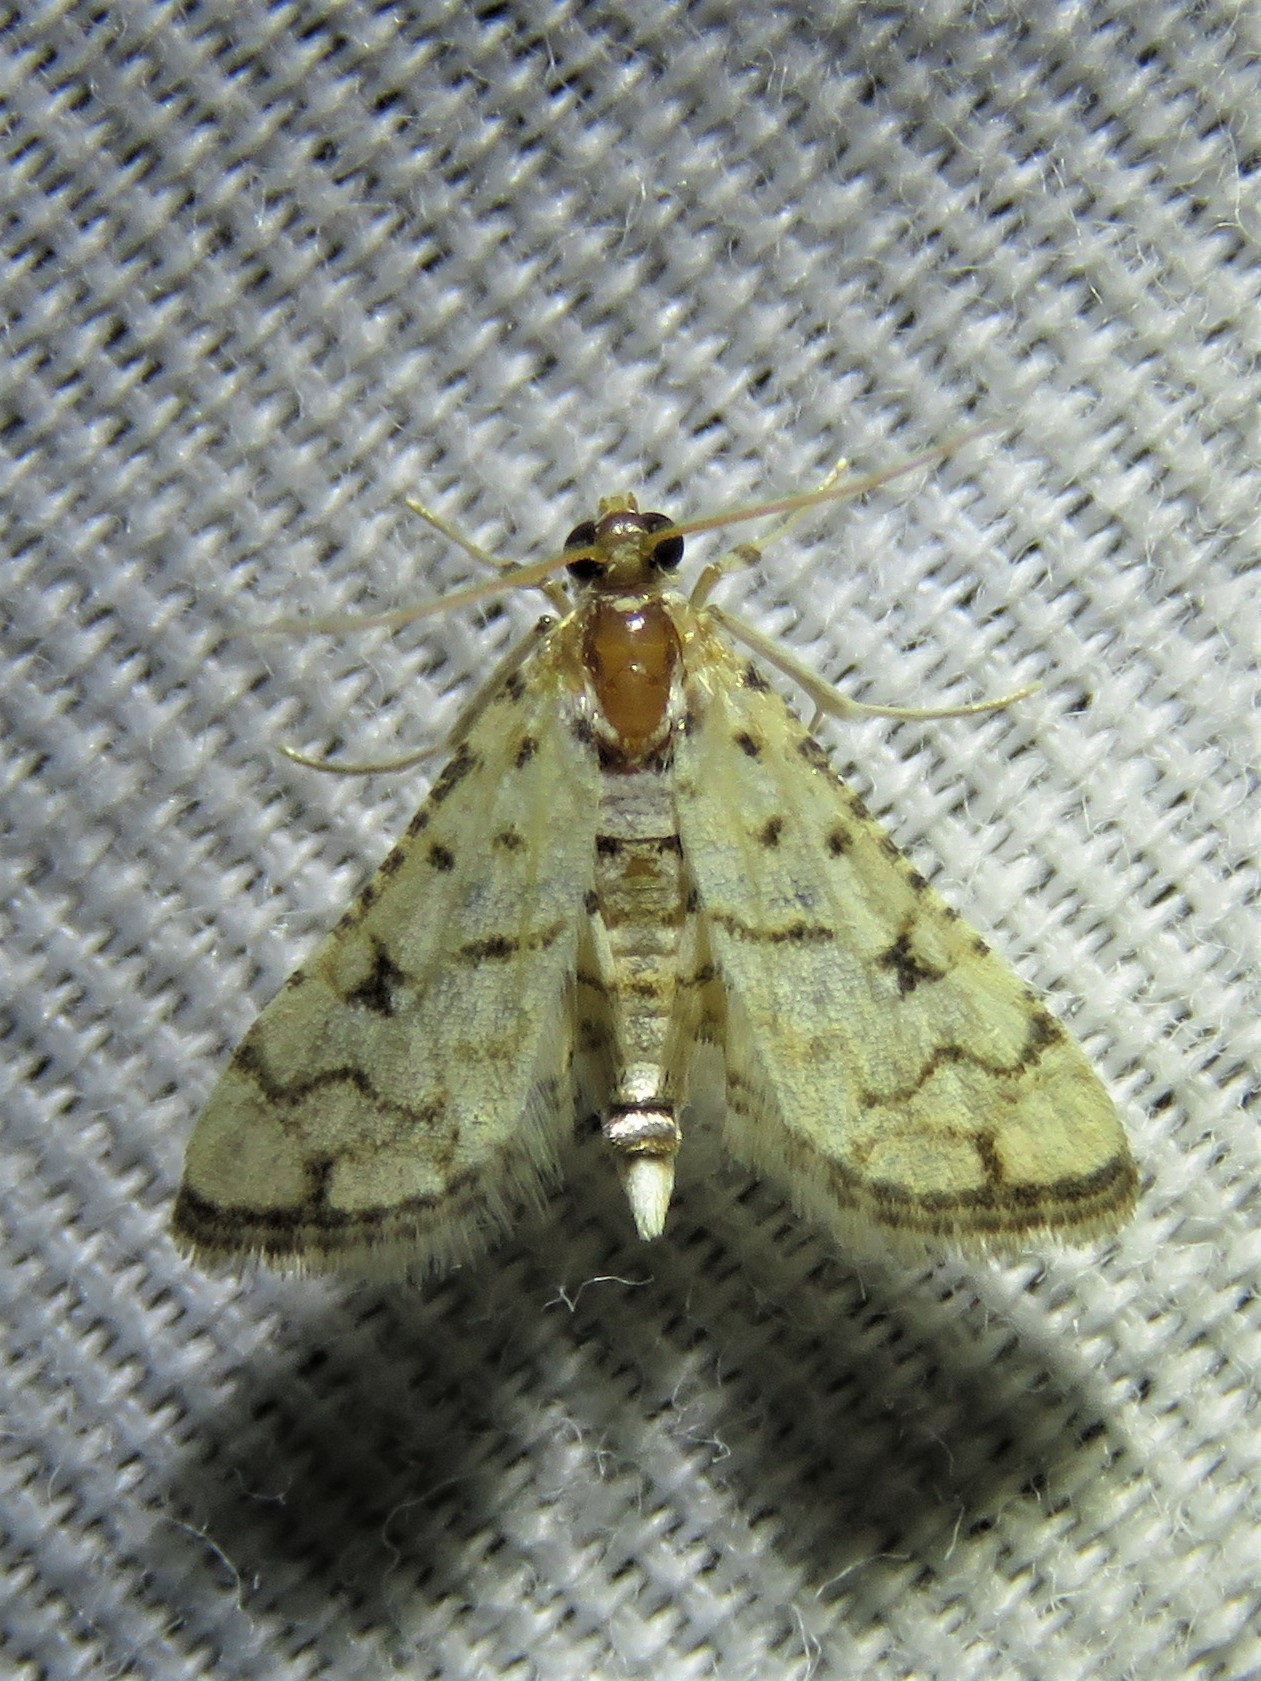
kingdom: Animalia
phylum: Arthropoda
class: Insecta
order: Lepidoptera
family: Crambidae
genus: Hileithia
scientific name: Hileithia rehamalis
